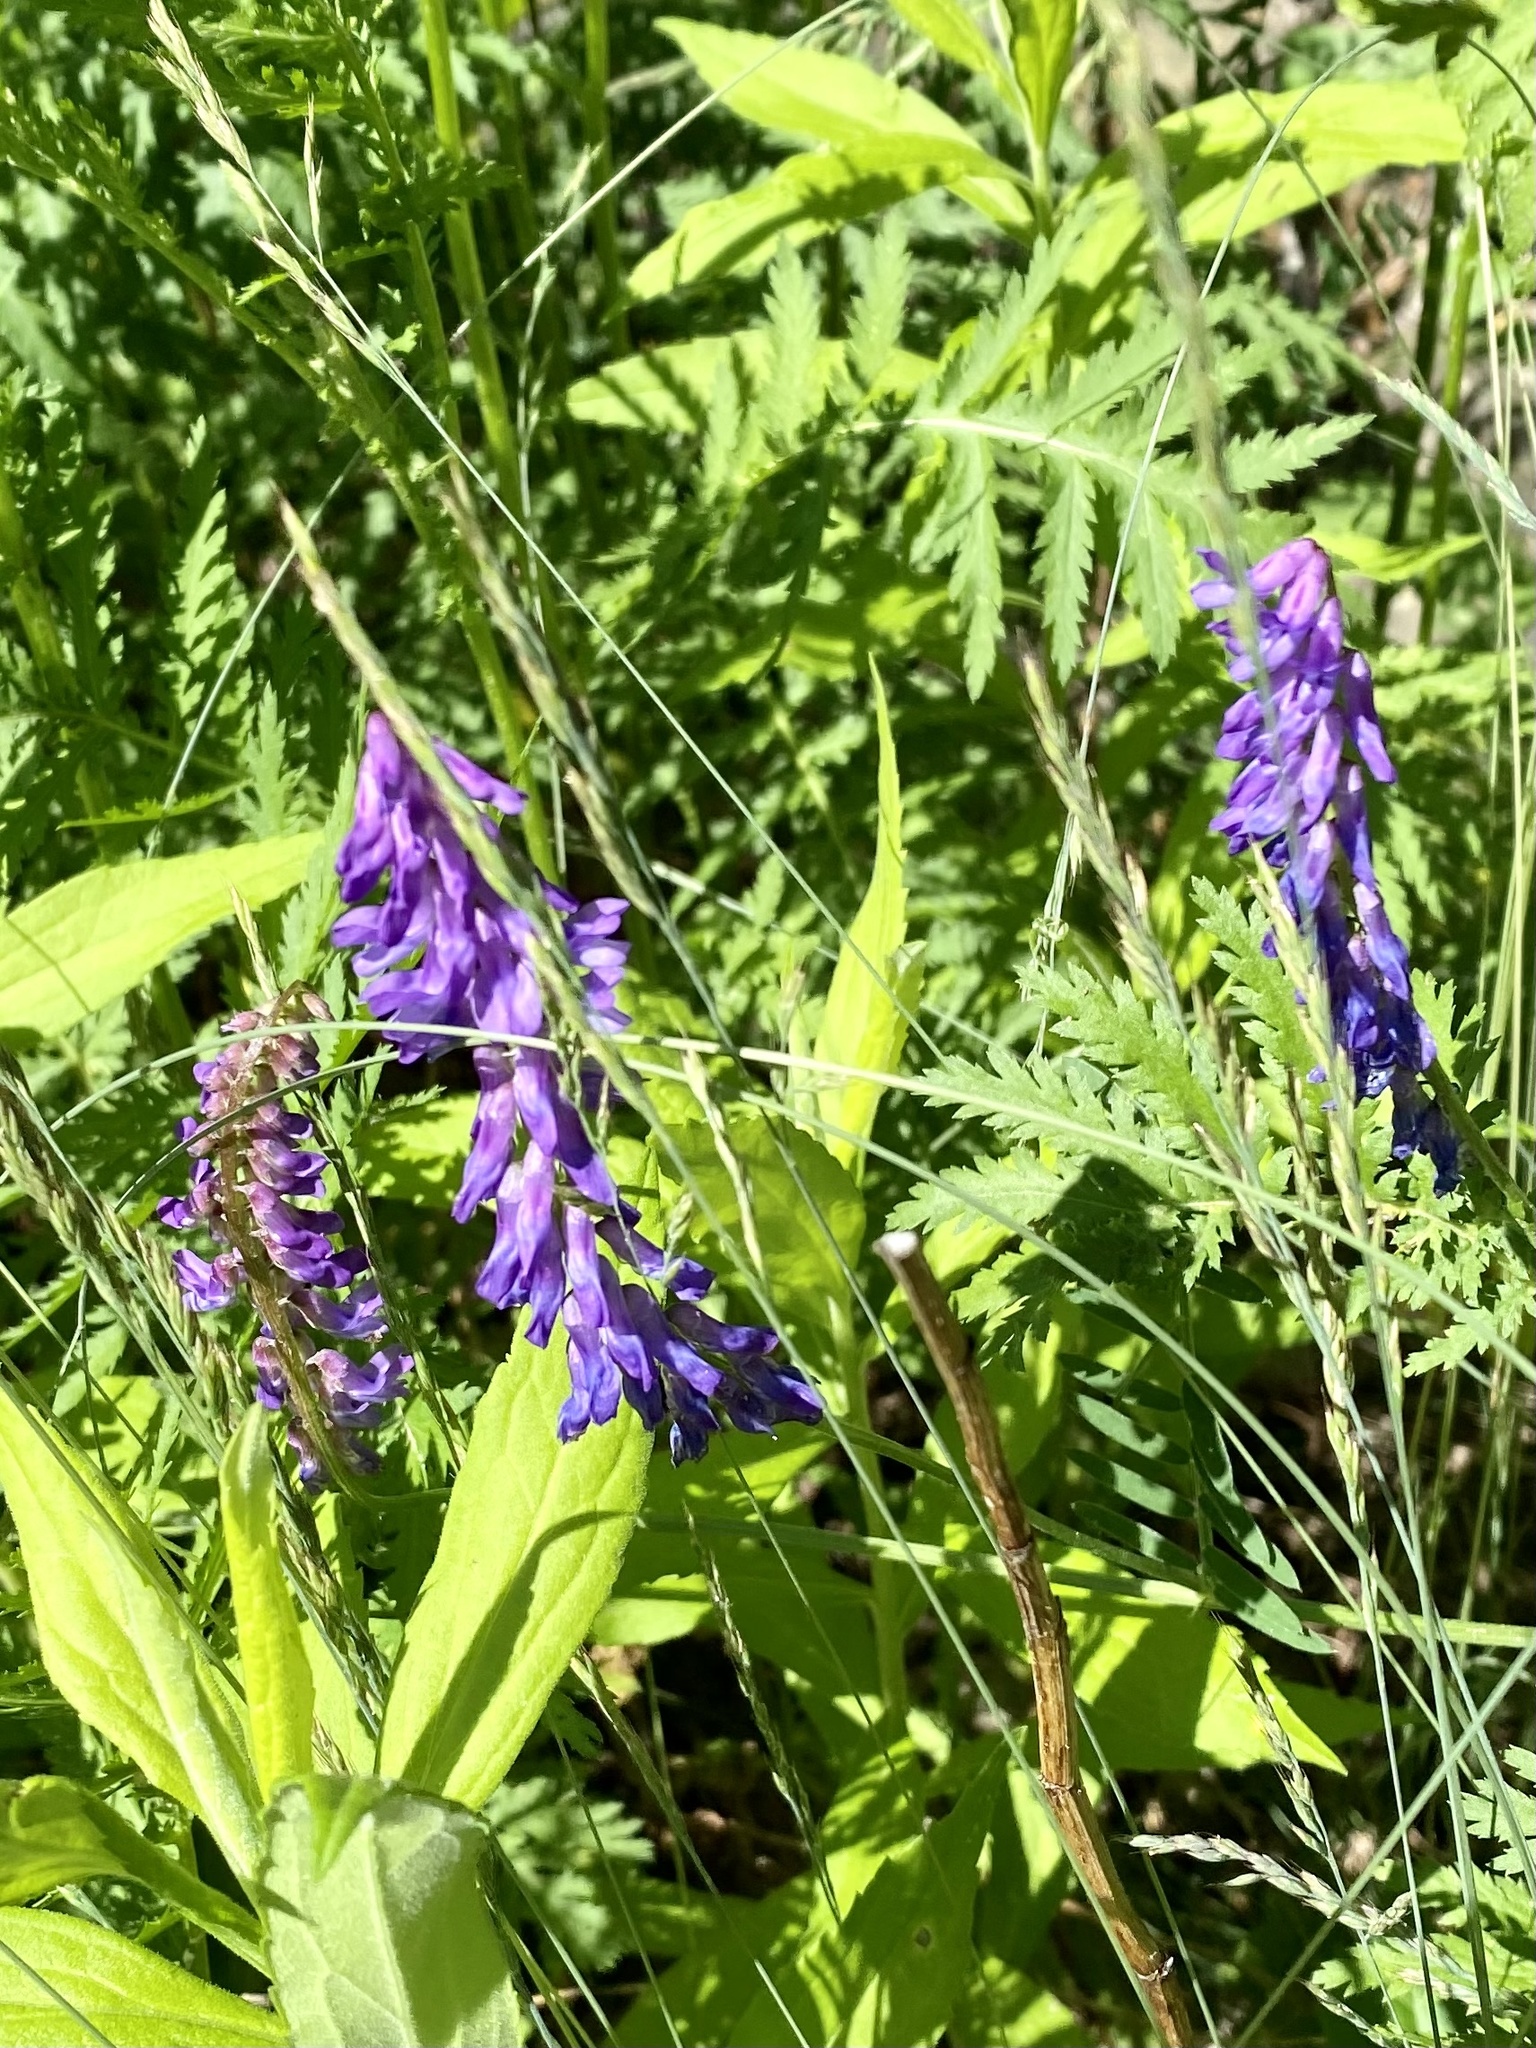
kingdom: Plantae
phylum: Tracheophyta
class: Magnoliopsida
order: Fabales
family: Fabaceae
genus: Vicia
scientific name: Vicia cracca
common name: Bird vetch
